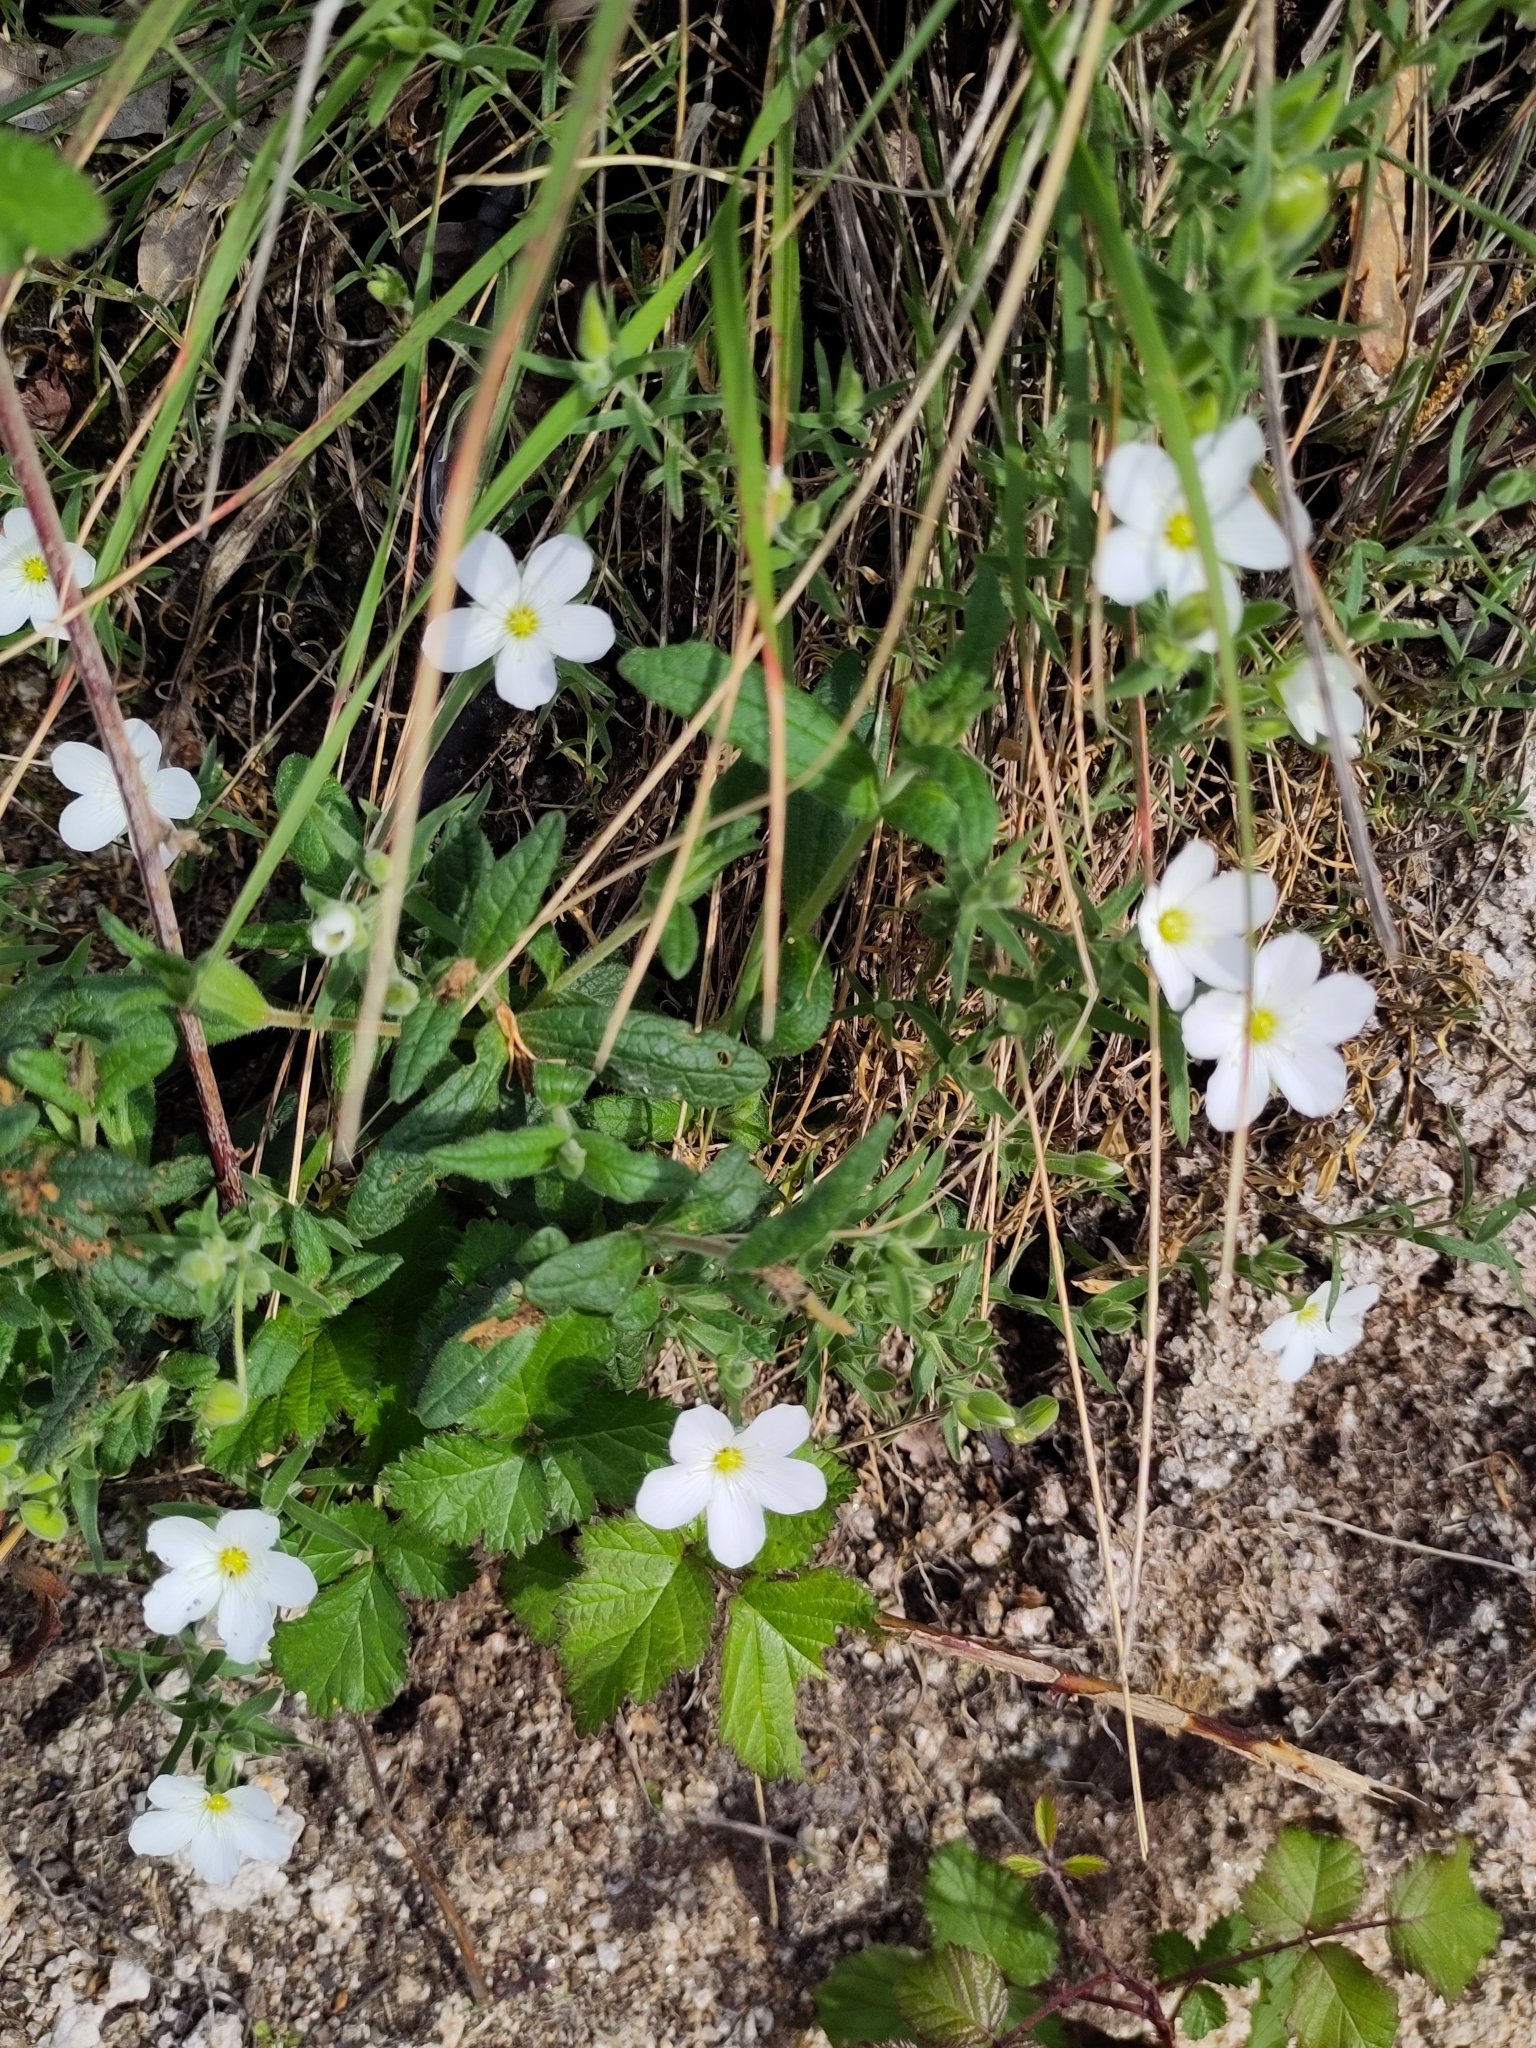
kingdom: Plantae
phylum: Tracheophyta
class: Magnoliopsida
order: Caryophyllales
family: Caryophyllaceae
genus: Arenaria
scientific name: Arenaria montana
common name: Mountain sandwort
